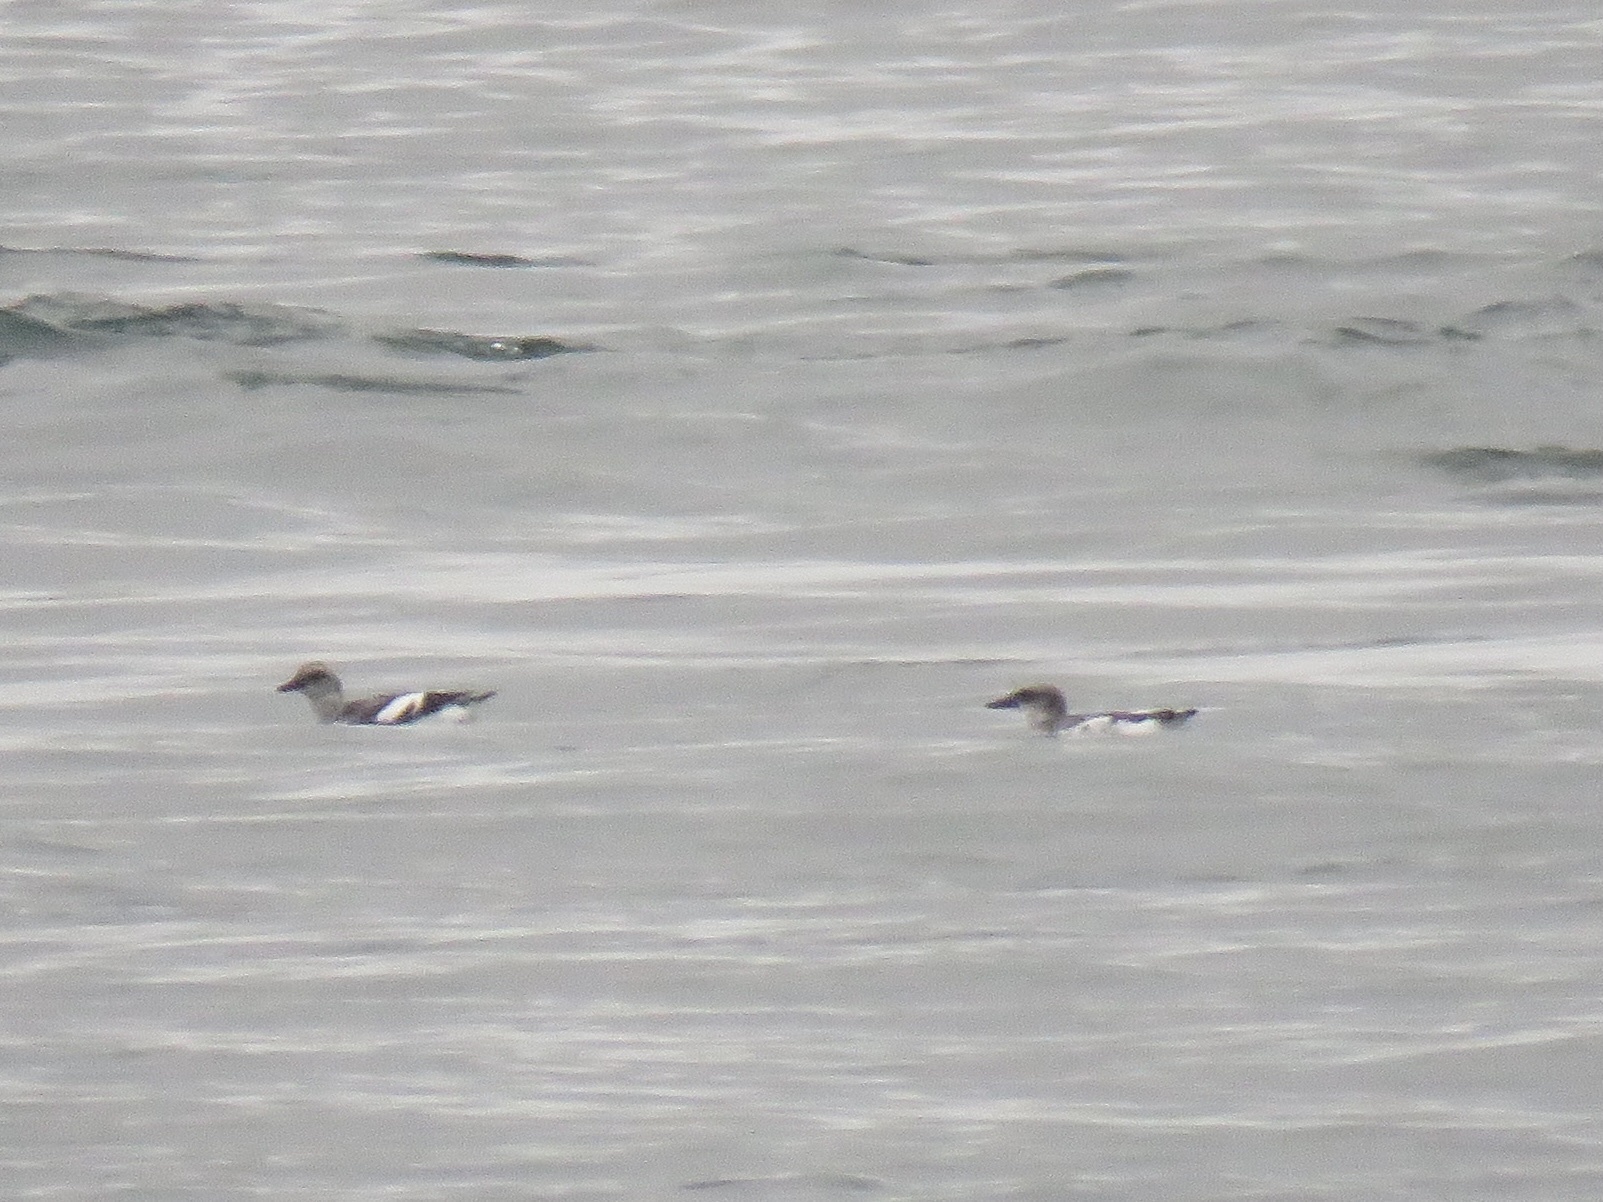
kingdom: Animalia
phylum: Chordata
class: Aves
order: Charadriiformes
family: Alcidae
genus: Cepphus
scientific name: Cepphus columba
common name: Pigeon guillemot
